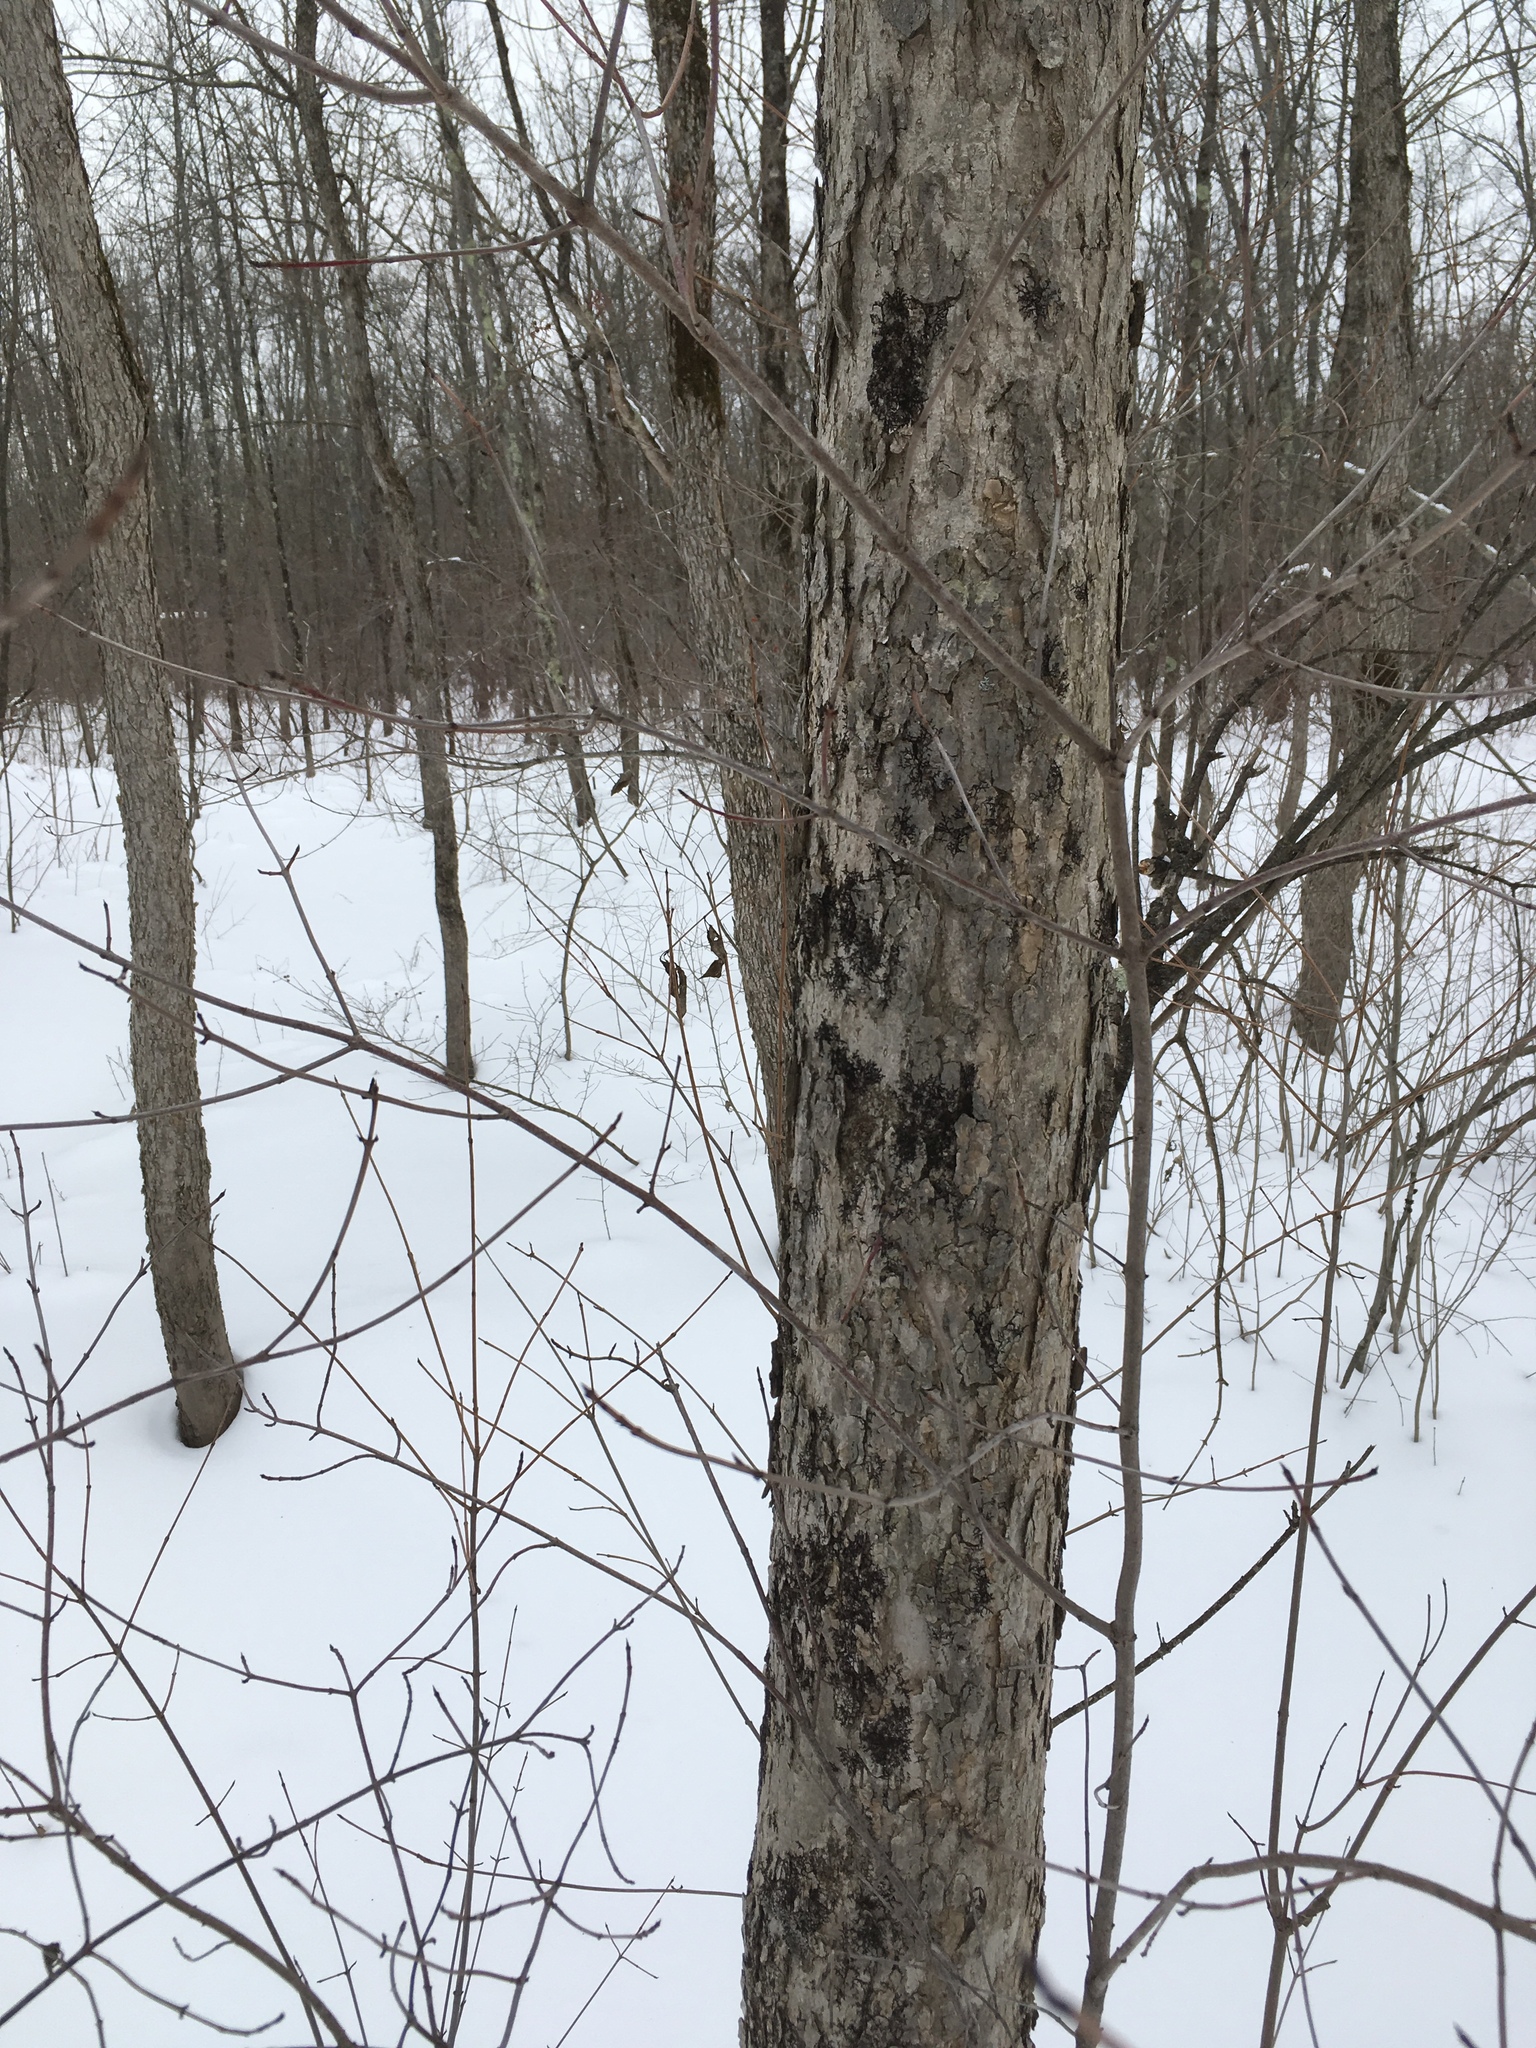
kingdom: Plantae
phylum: Tracheophyta
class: Magnoliopsida
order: Lamiales
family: Oleaceae
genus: Fraxinus
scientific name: Fraxinus nigra
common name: Black ash
